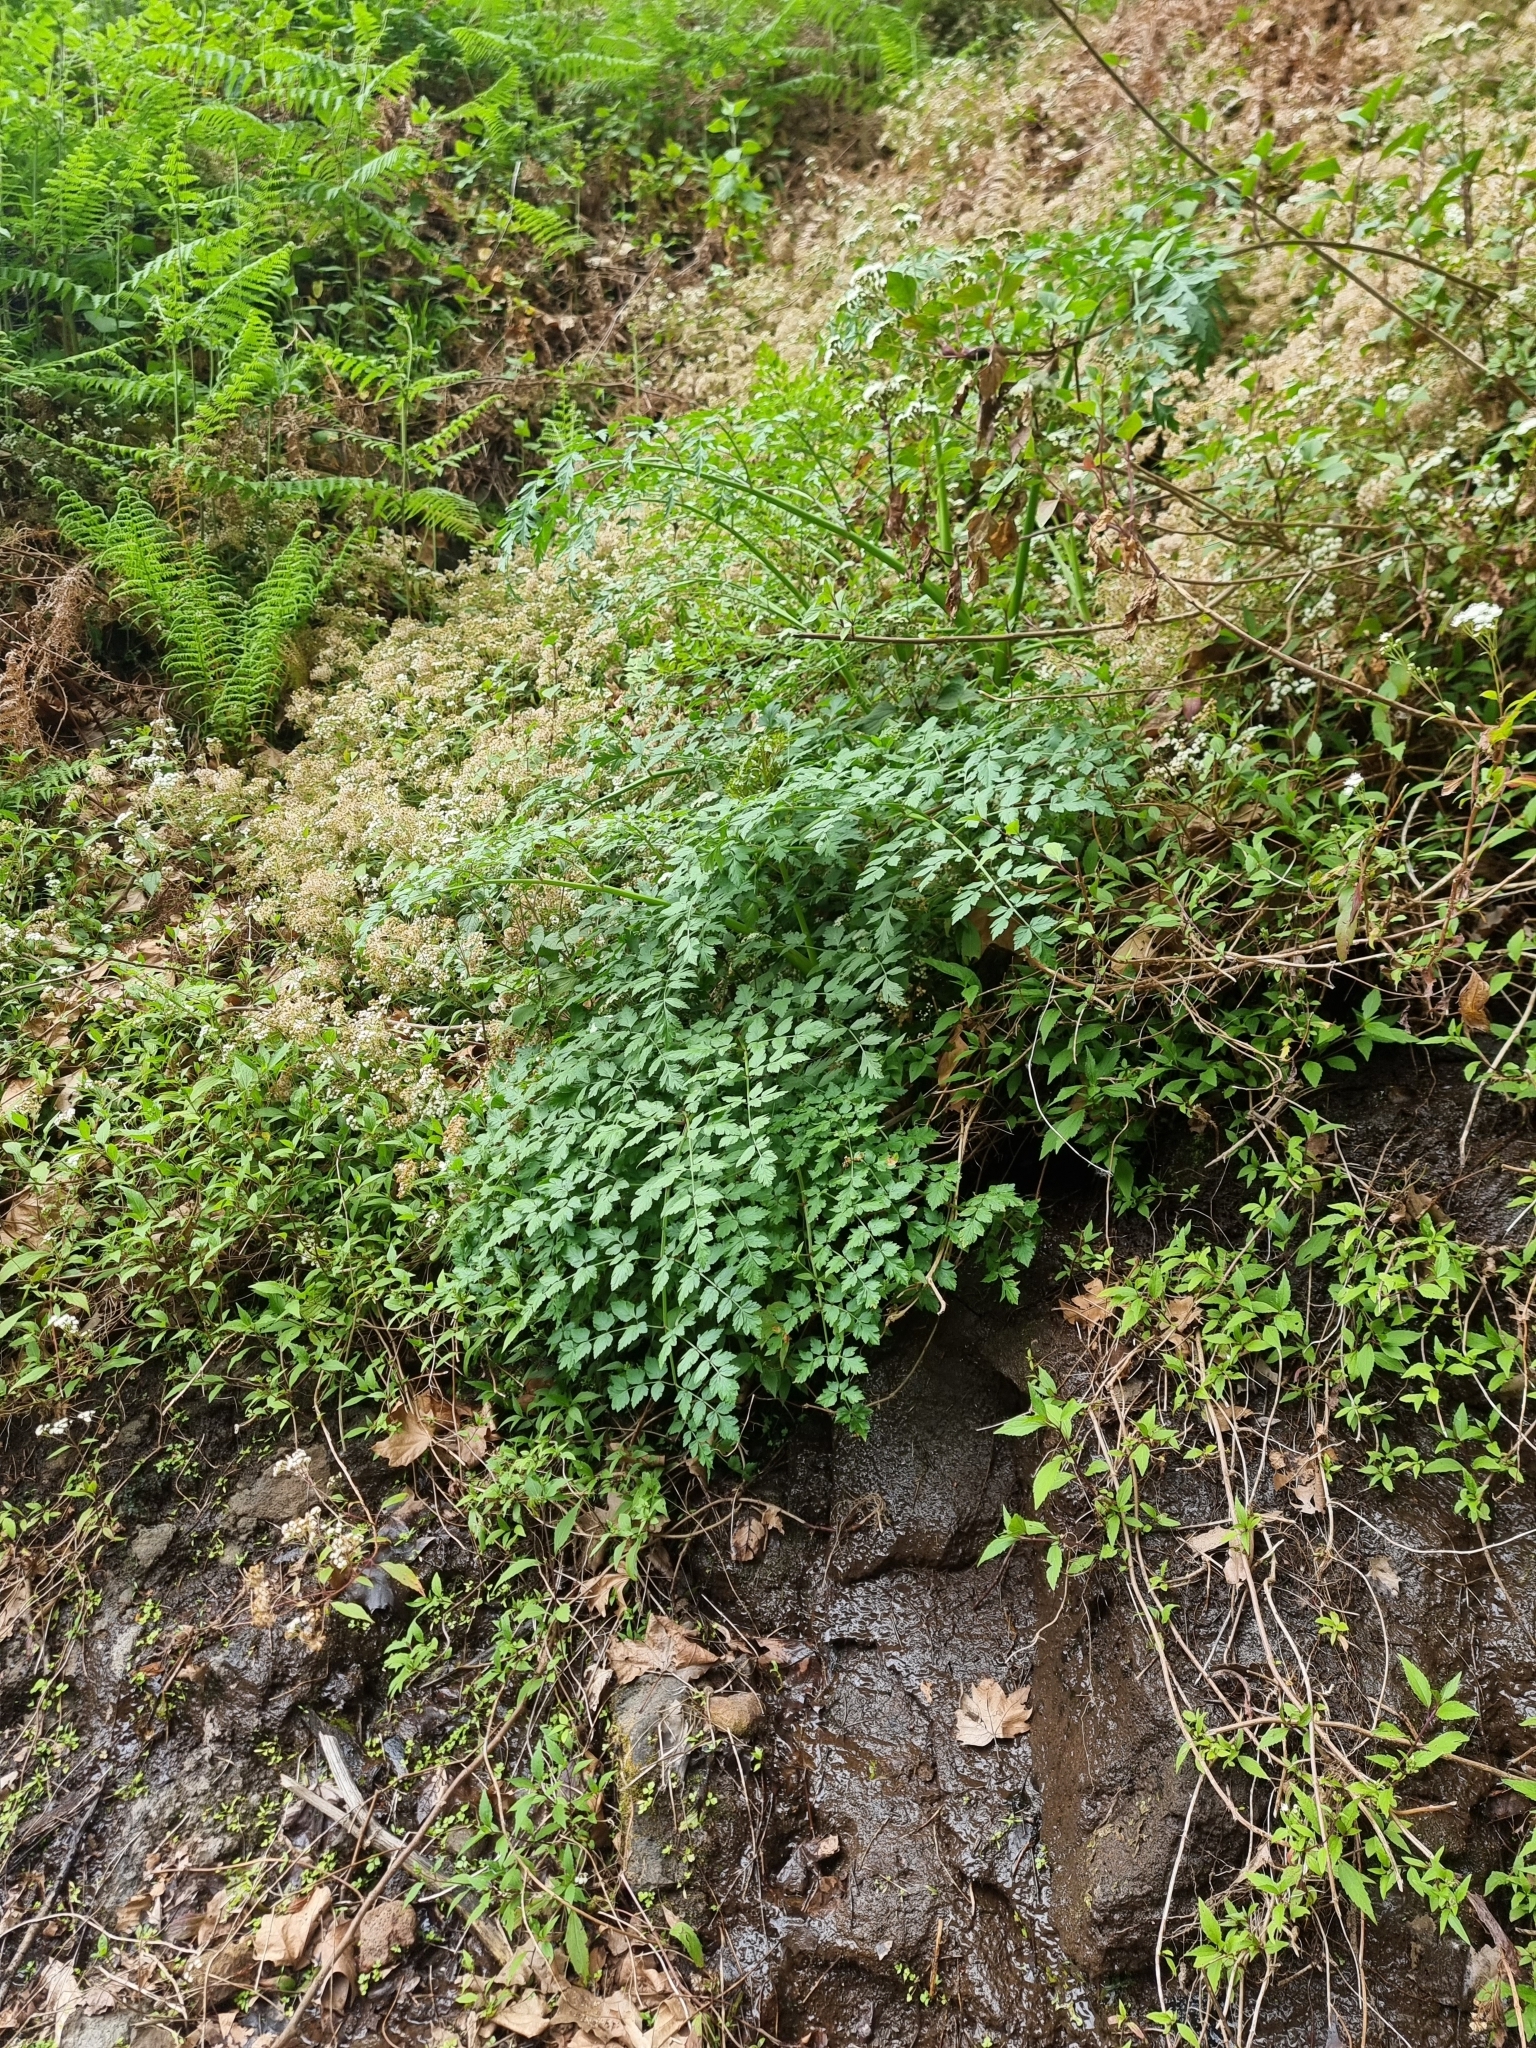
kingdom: Plantae
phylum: Tracheophyta
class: Magnoliopsida
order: Apiales
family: Apiaceae
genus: Oenanthe
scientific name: Oenanthe divaricata
